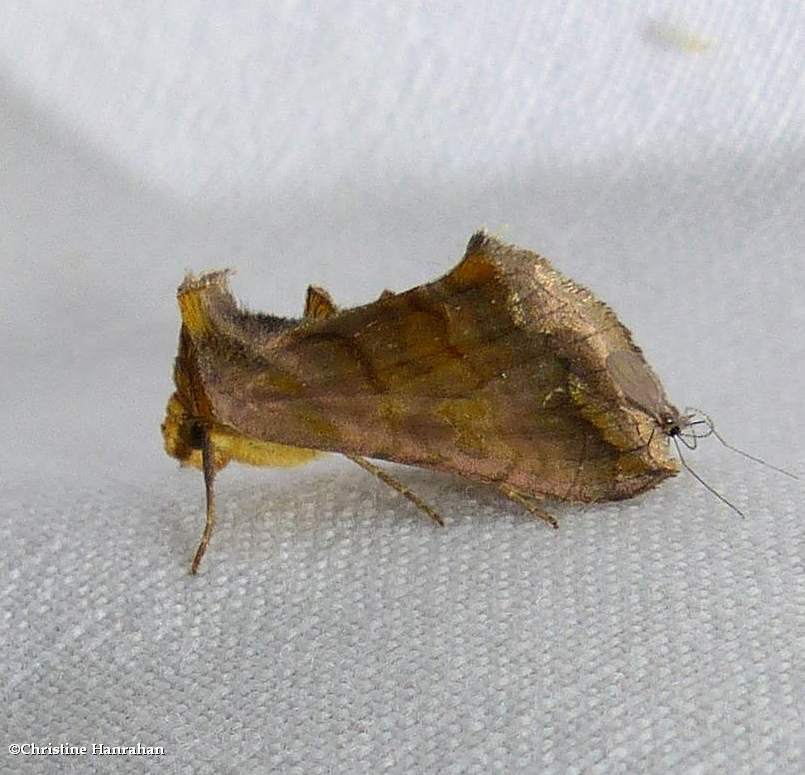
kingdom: Animalia
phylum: Arthropoda
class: Insecta
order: Lepidoptera
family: Noctuidae
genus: Allagrapha
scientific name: Allagrapha aerea
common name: Unspotted looper moth
